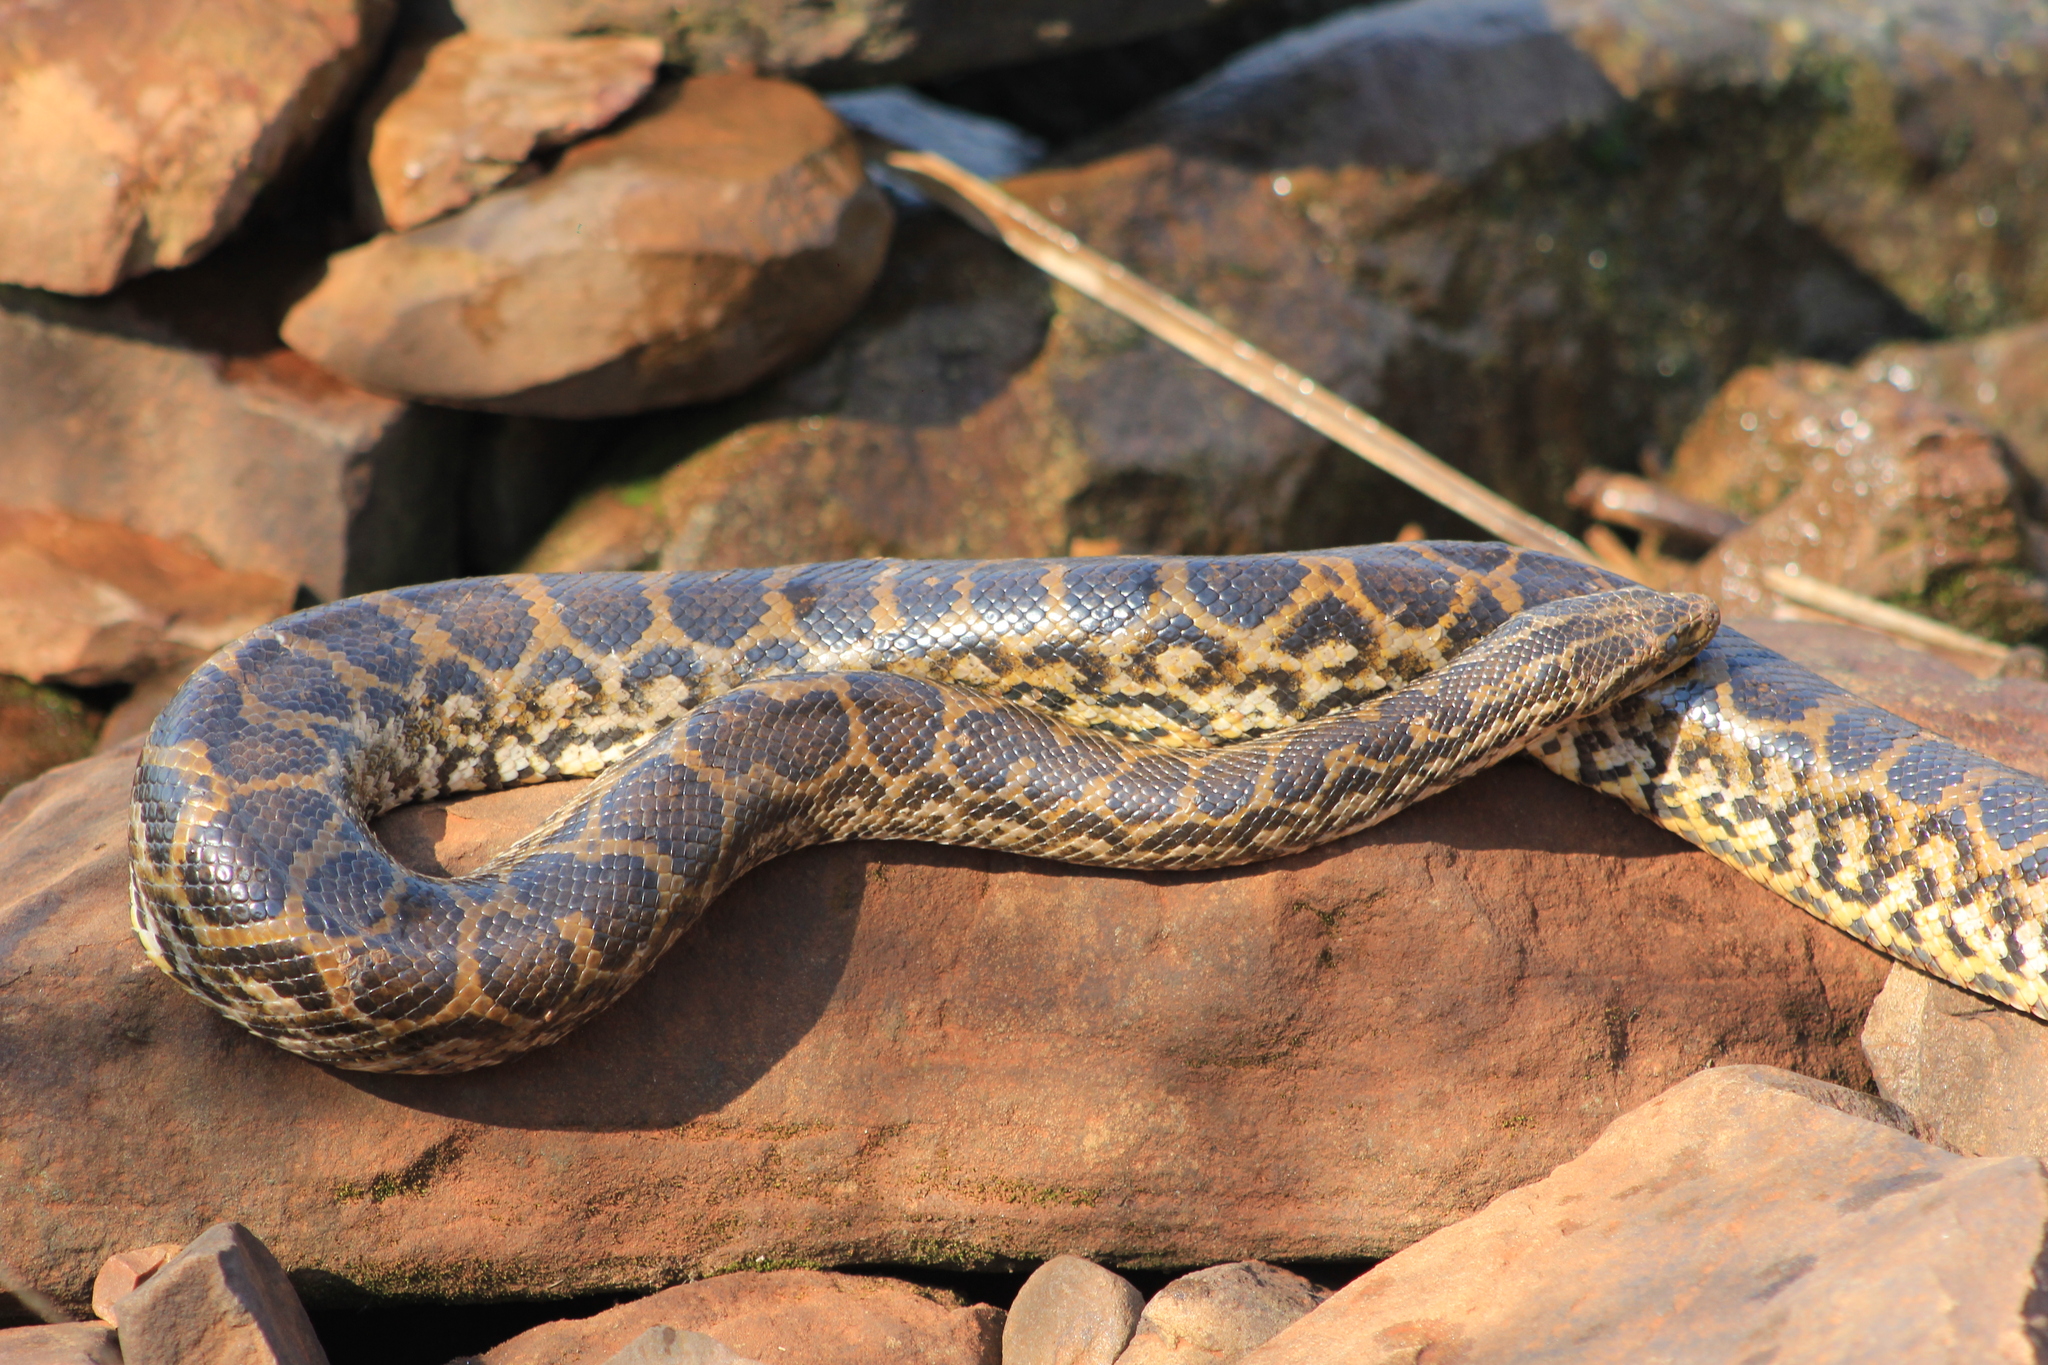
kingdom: Animalia
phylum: Chordata
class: Squamata
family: Boidae
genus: Eunectes
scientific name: Eunectes notaeus
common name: Yellow anaconda
